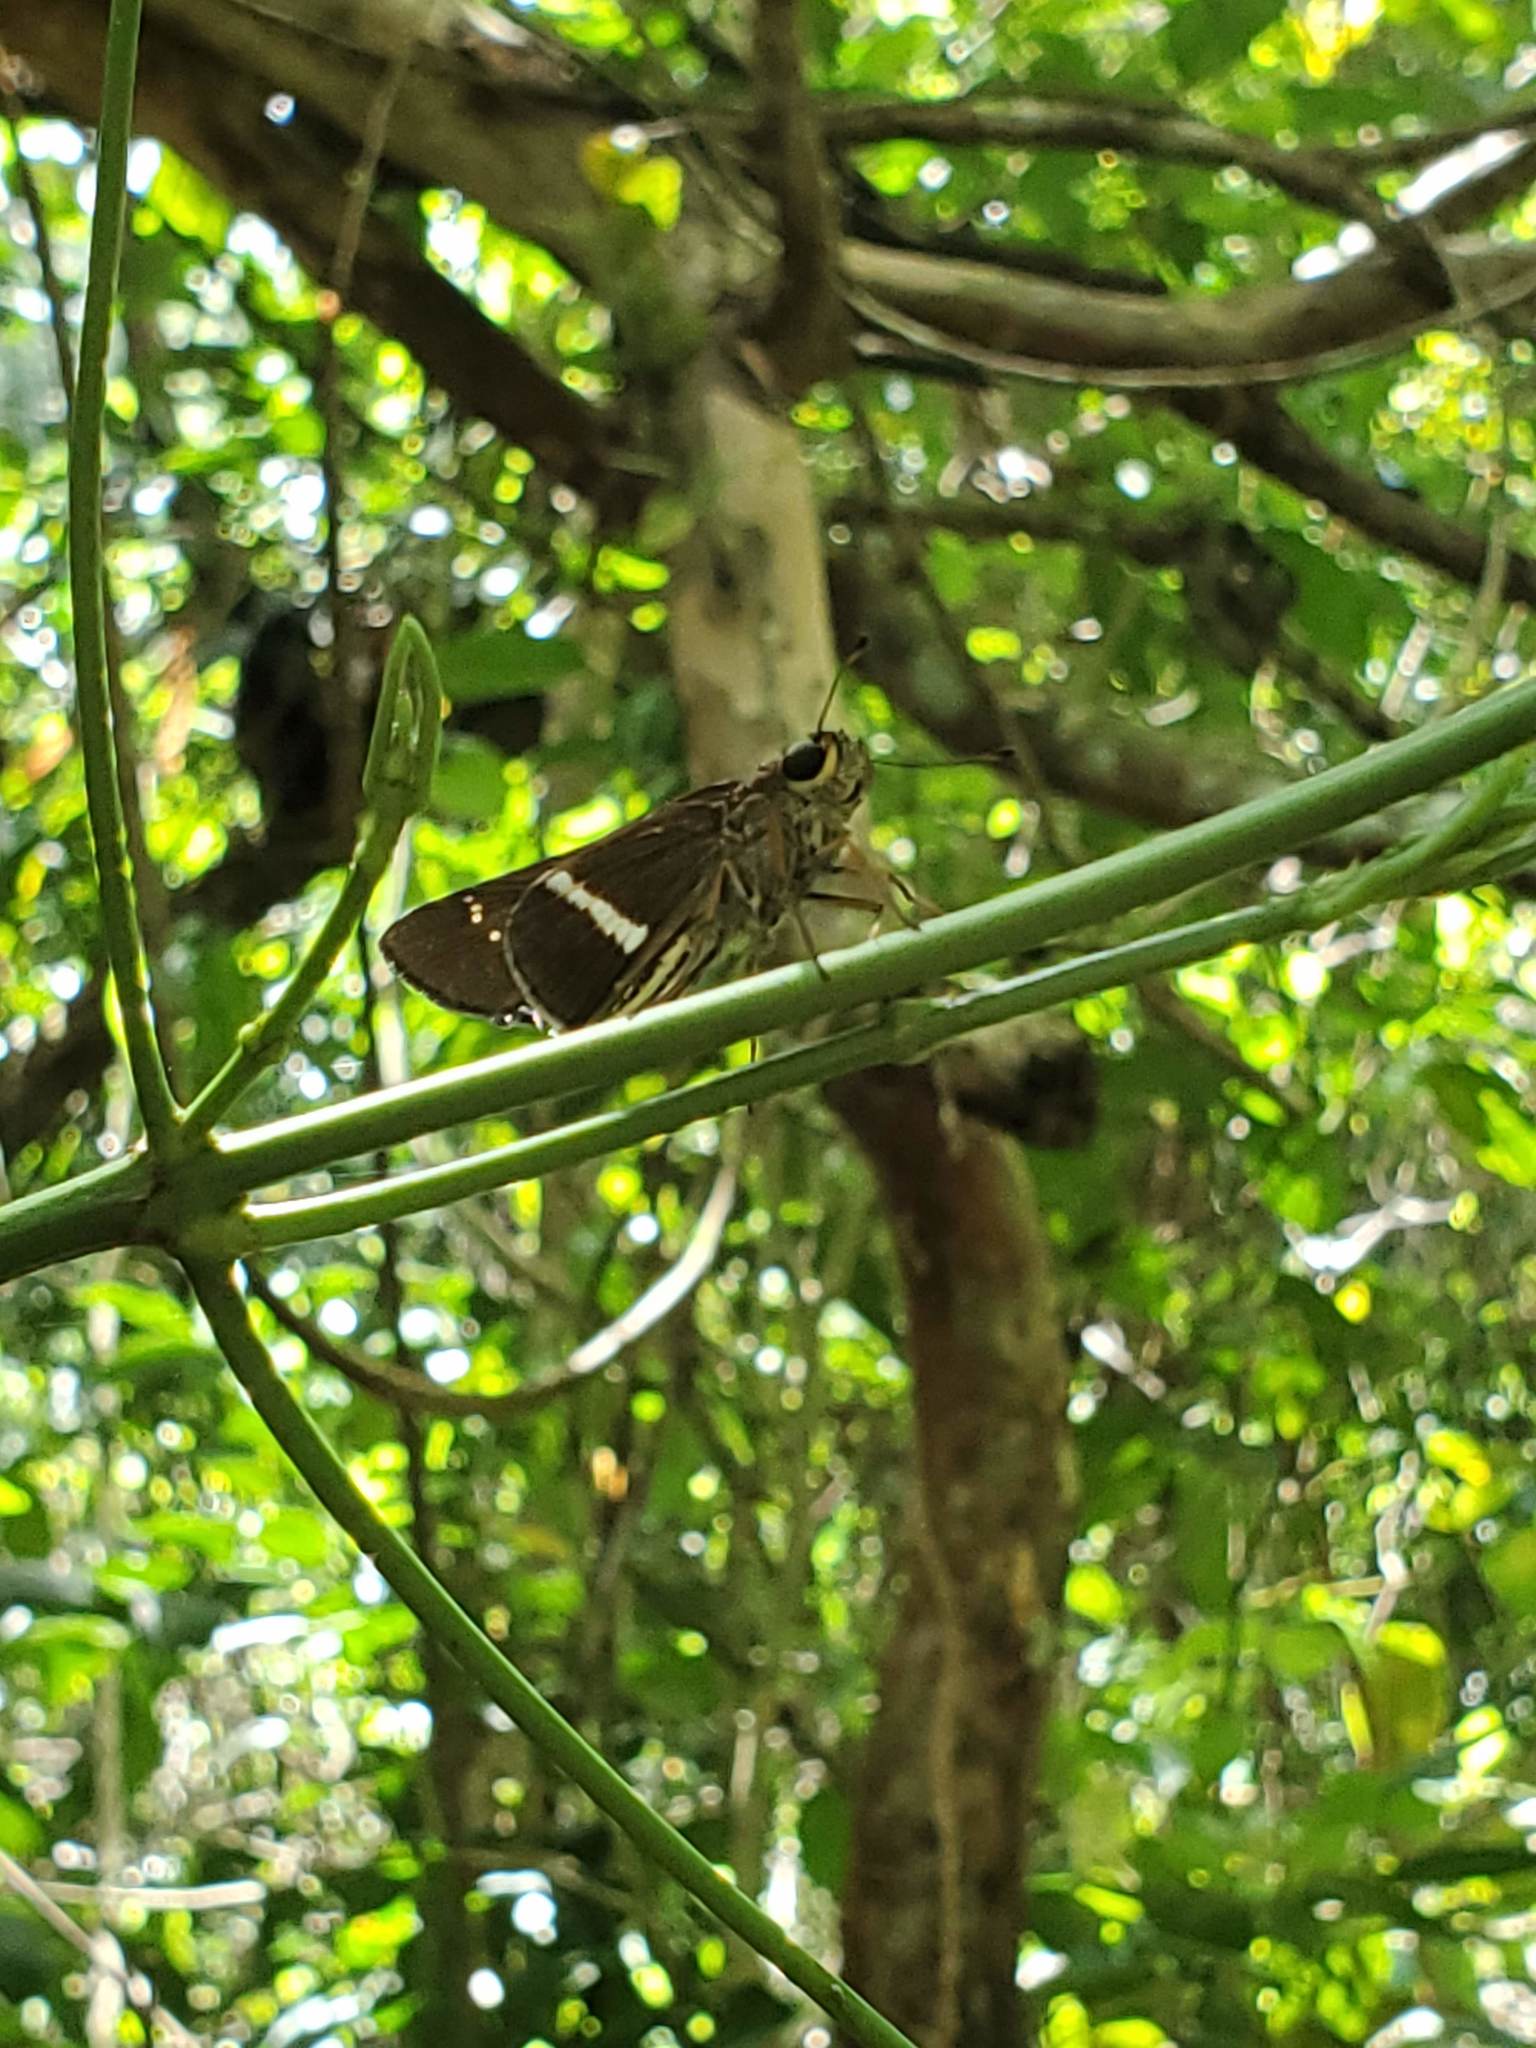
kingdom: Animalia
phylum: Arthropoda
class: Insecta
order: Lepidoptera
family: Hesperiidae
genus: Panoquina
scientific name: Panoquina nero
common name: Nero skipper
